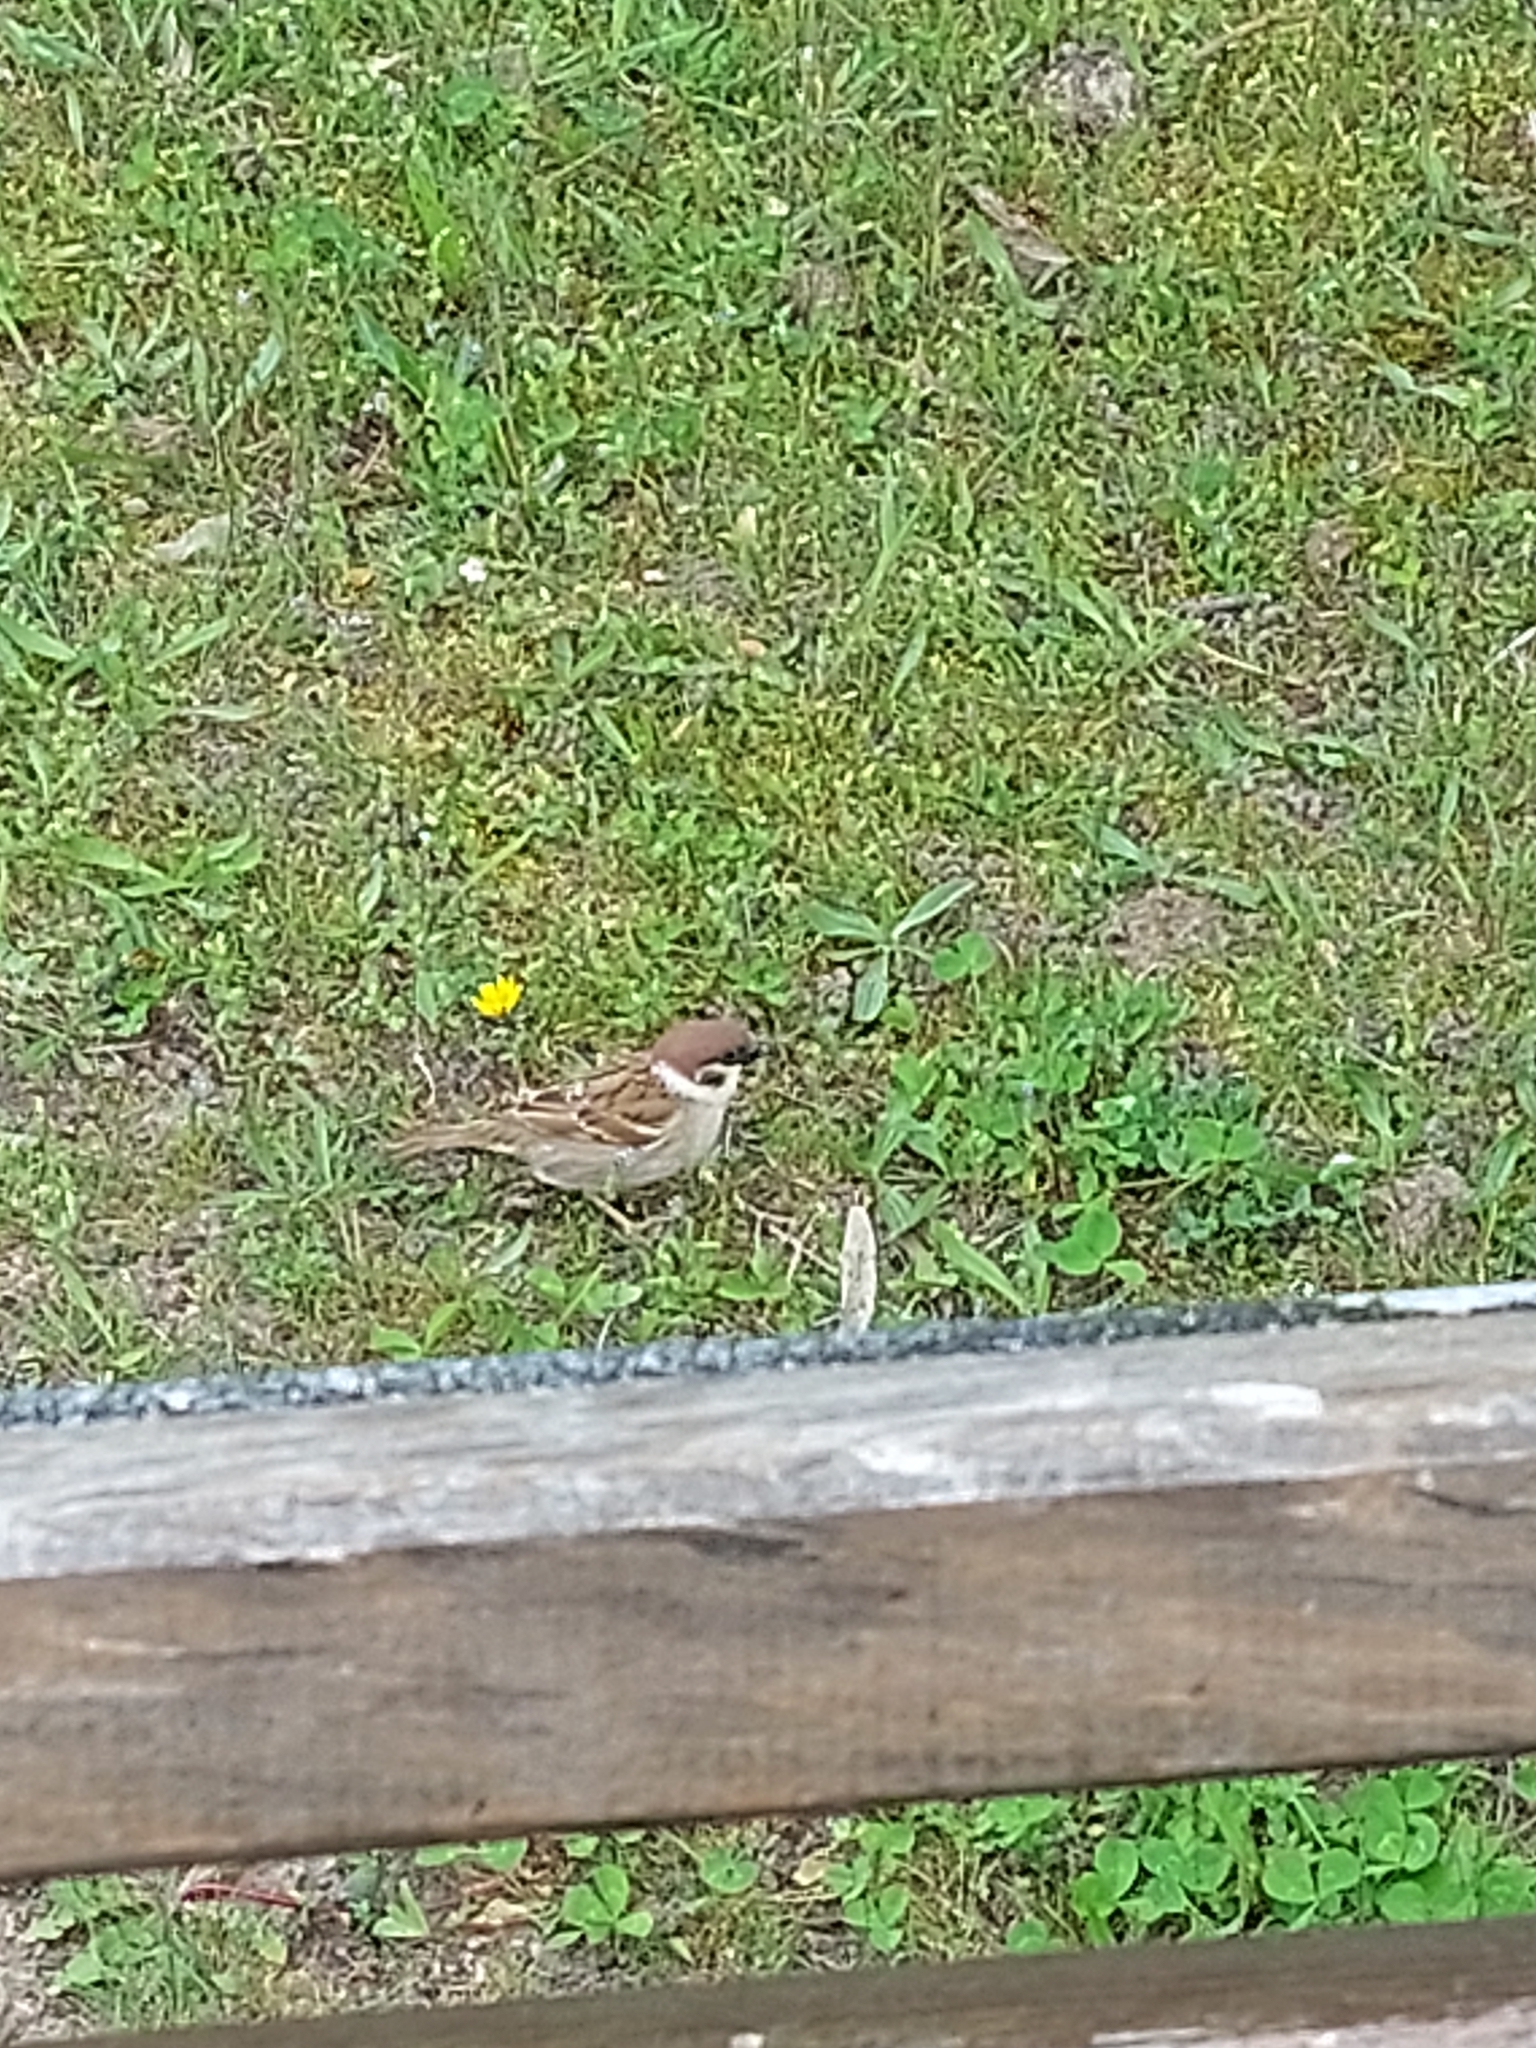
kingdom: Animalia
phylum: Chordata
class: Aves
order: Passeriformes
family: Passeridae
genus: Passer
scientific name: Passer montanus
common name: Eurasian tree sparrow
